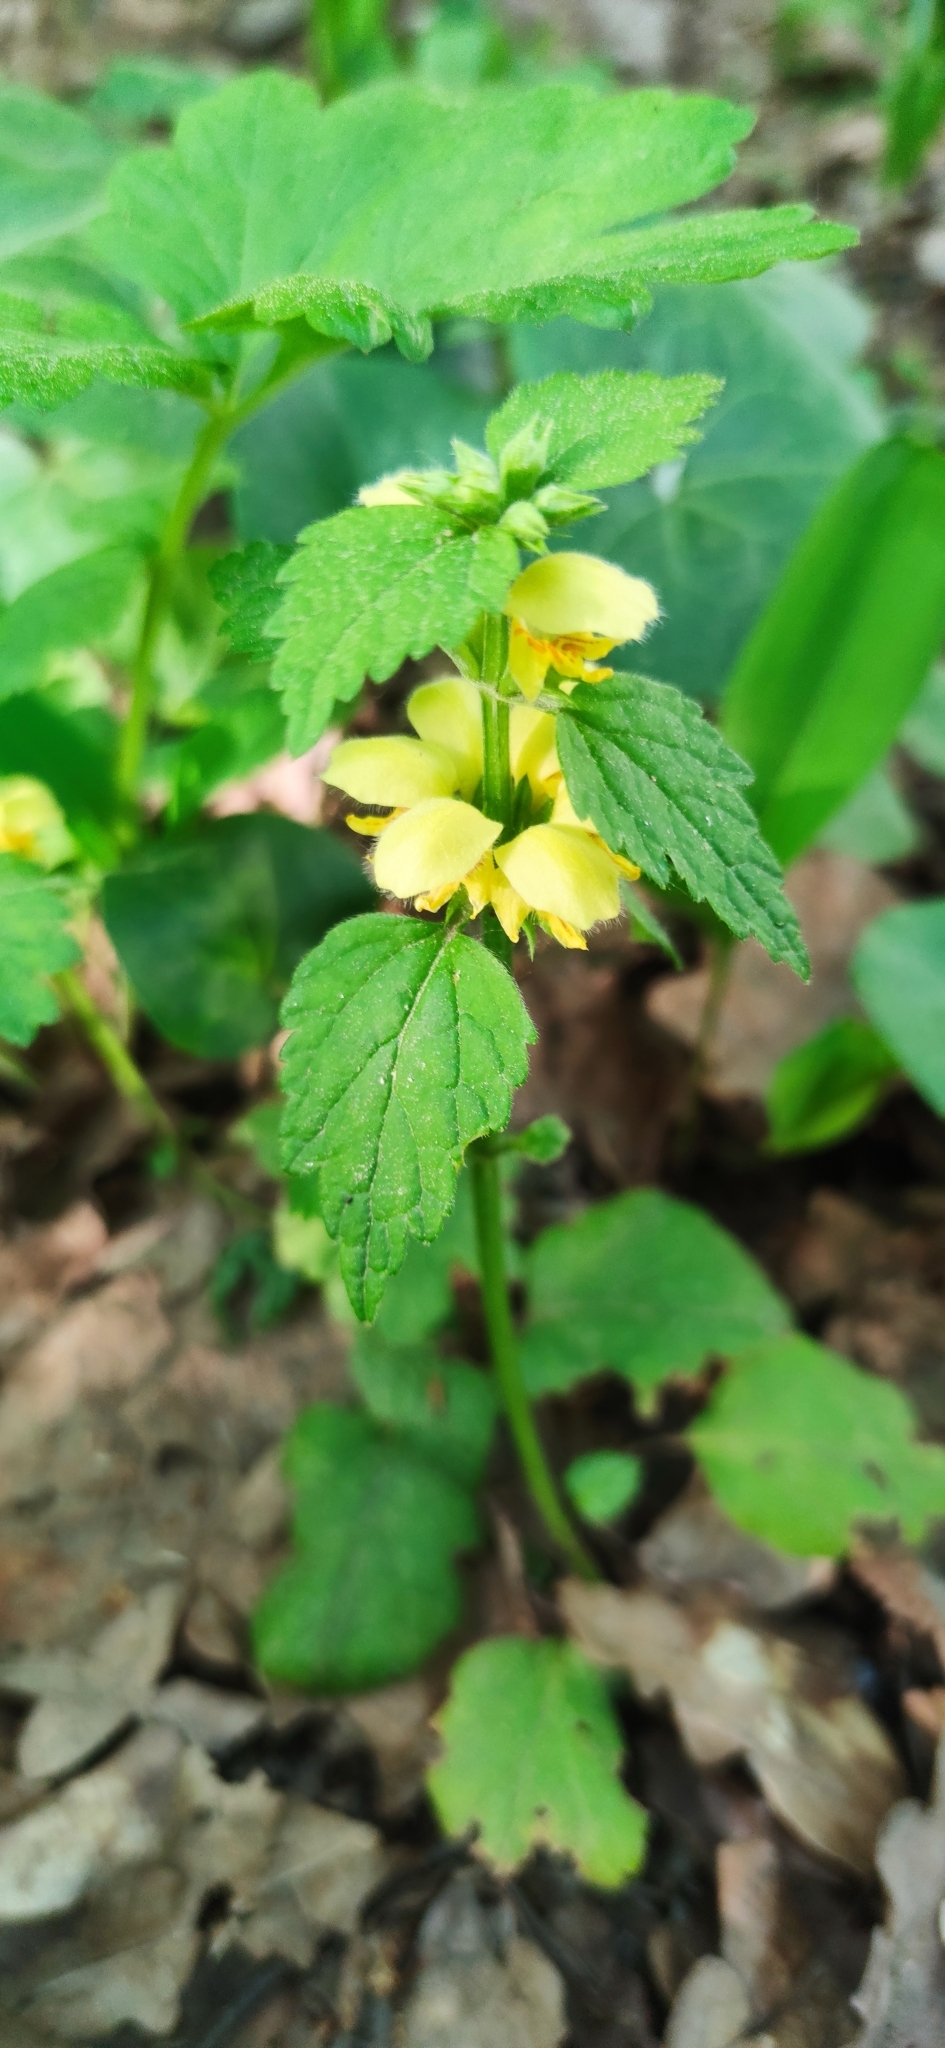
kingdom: Plantae
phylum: Tracheophyta
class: Magnoliopsida
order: Lamiales
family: Lamiaceae
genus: Lamium
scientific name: Lamium galeobdolon
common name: Yellow archangel
